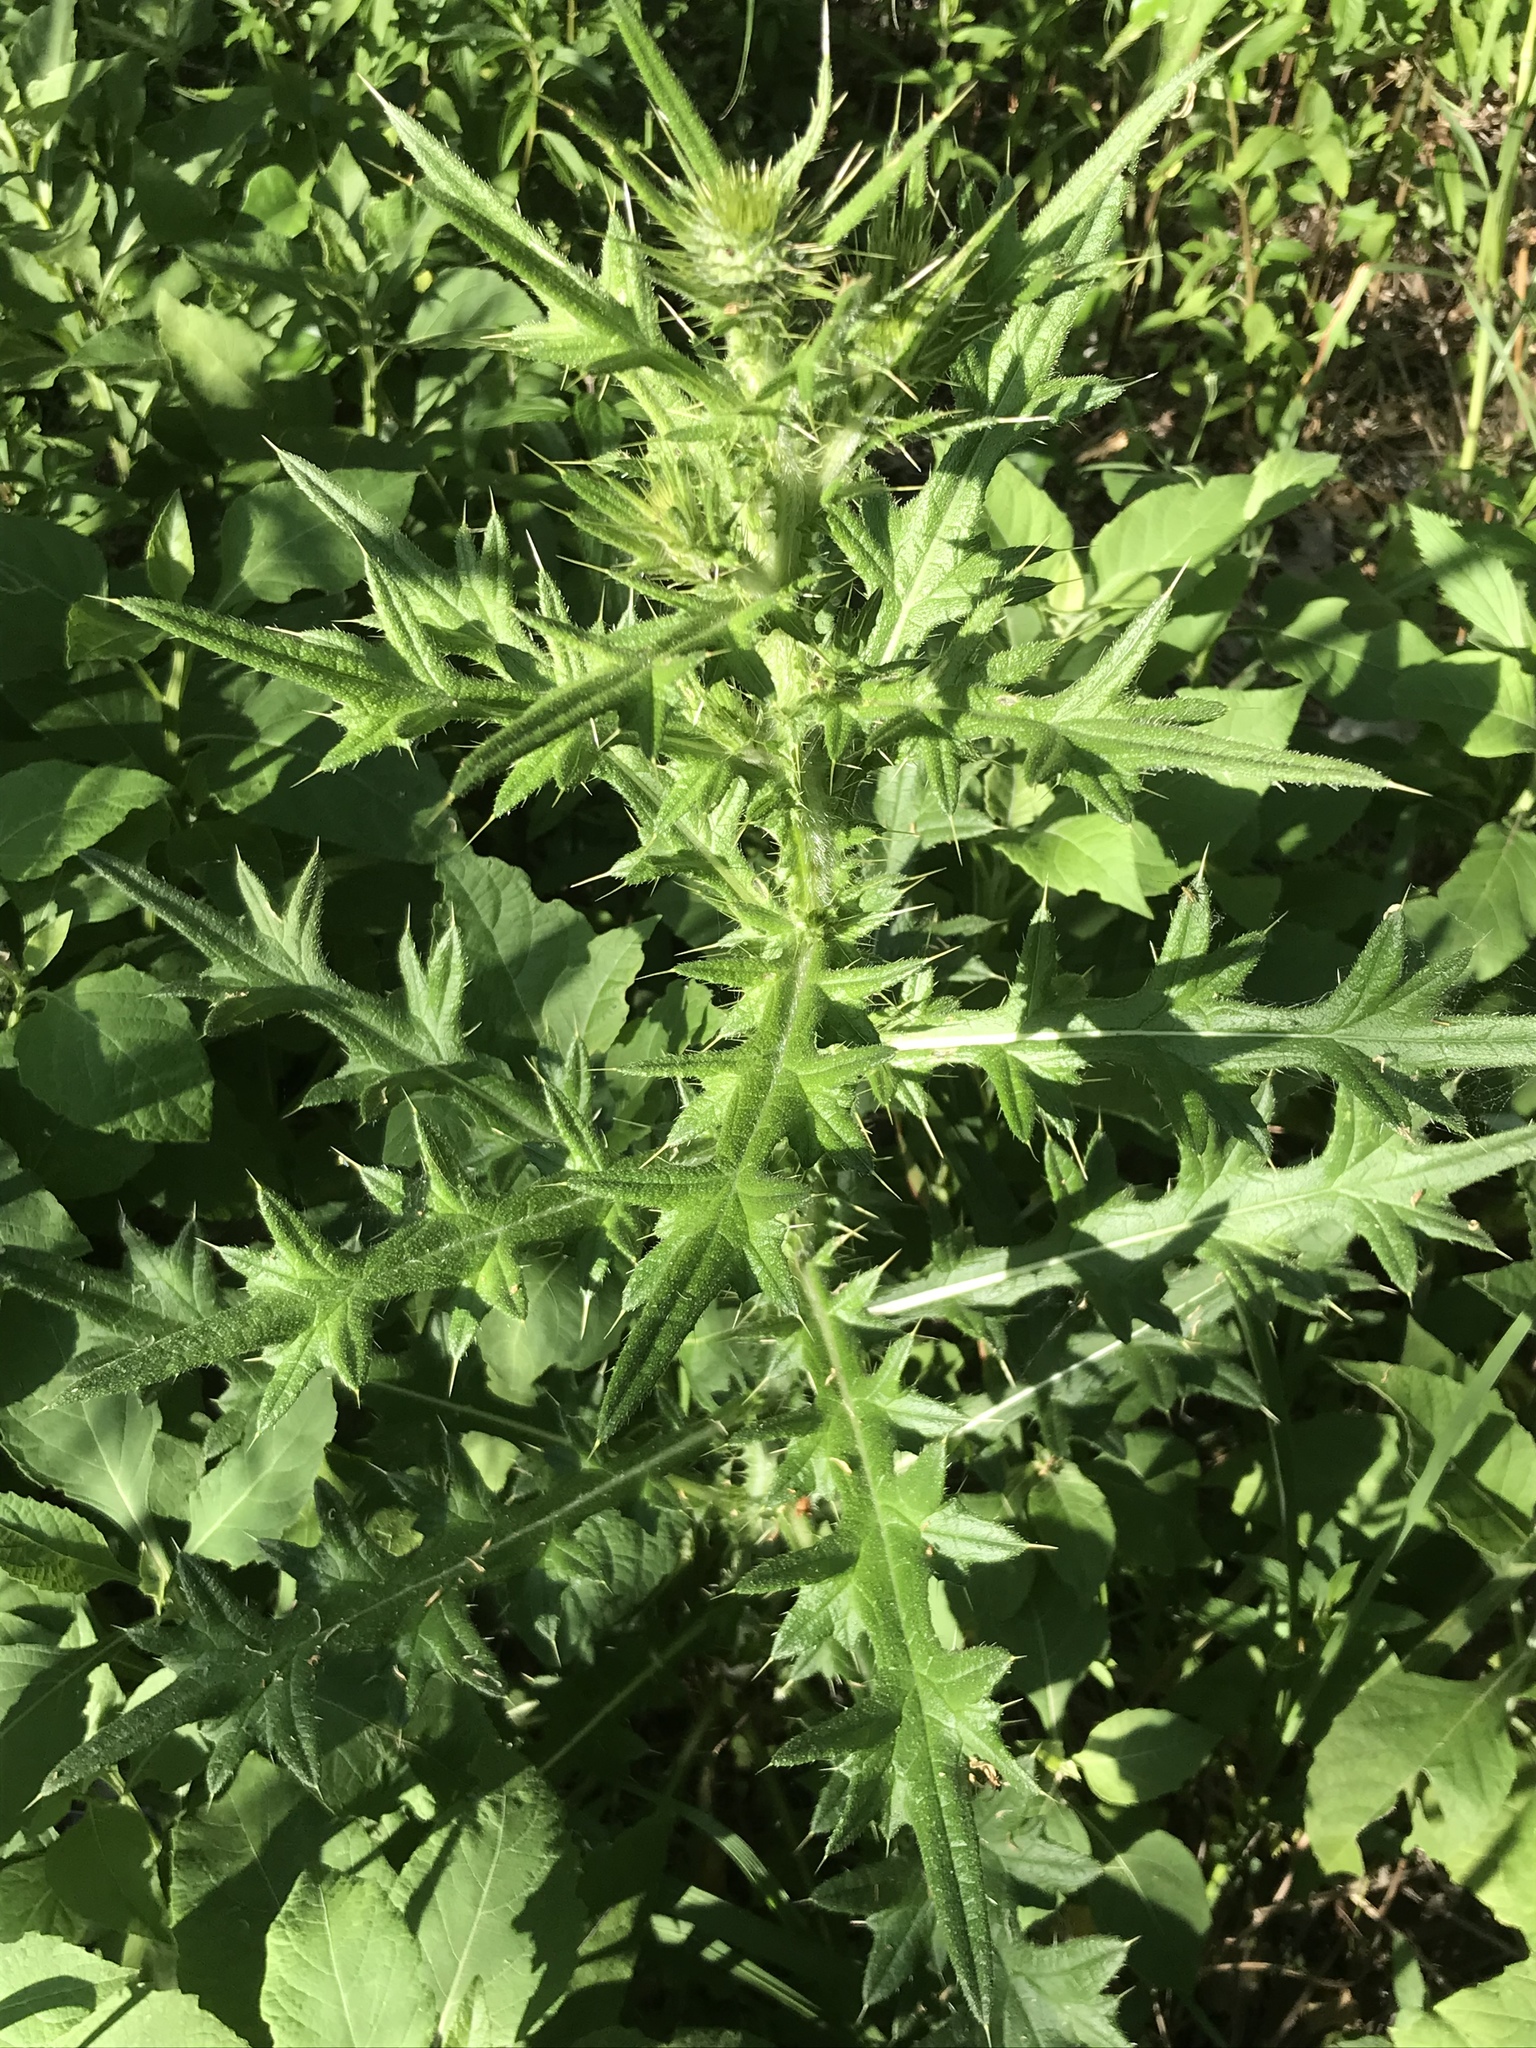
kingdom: Plantae
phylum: Tracheophyta
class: Magnoliopsida
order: Asterales
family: Asteraceae
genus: Cirsium
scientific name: Cirsium vulgare
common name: Bull thistle
